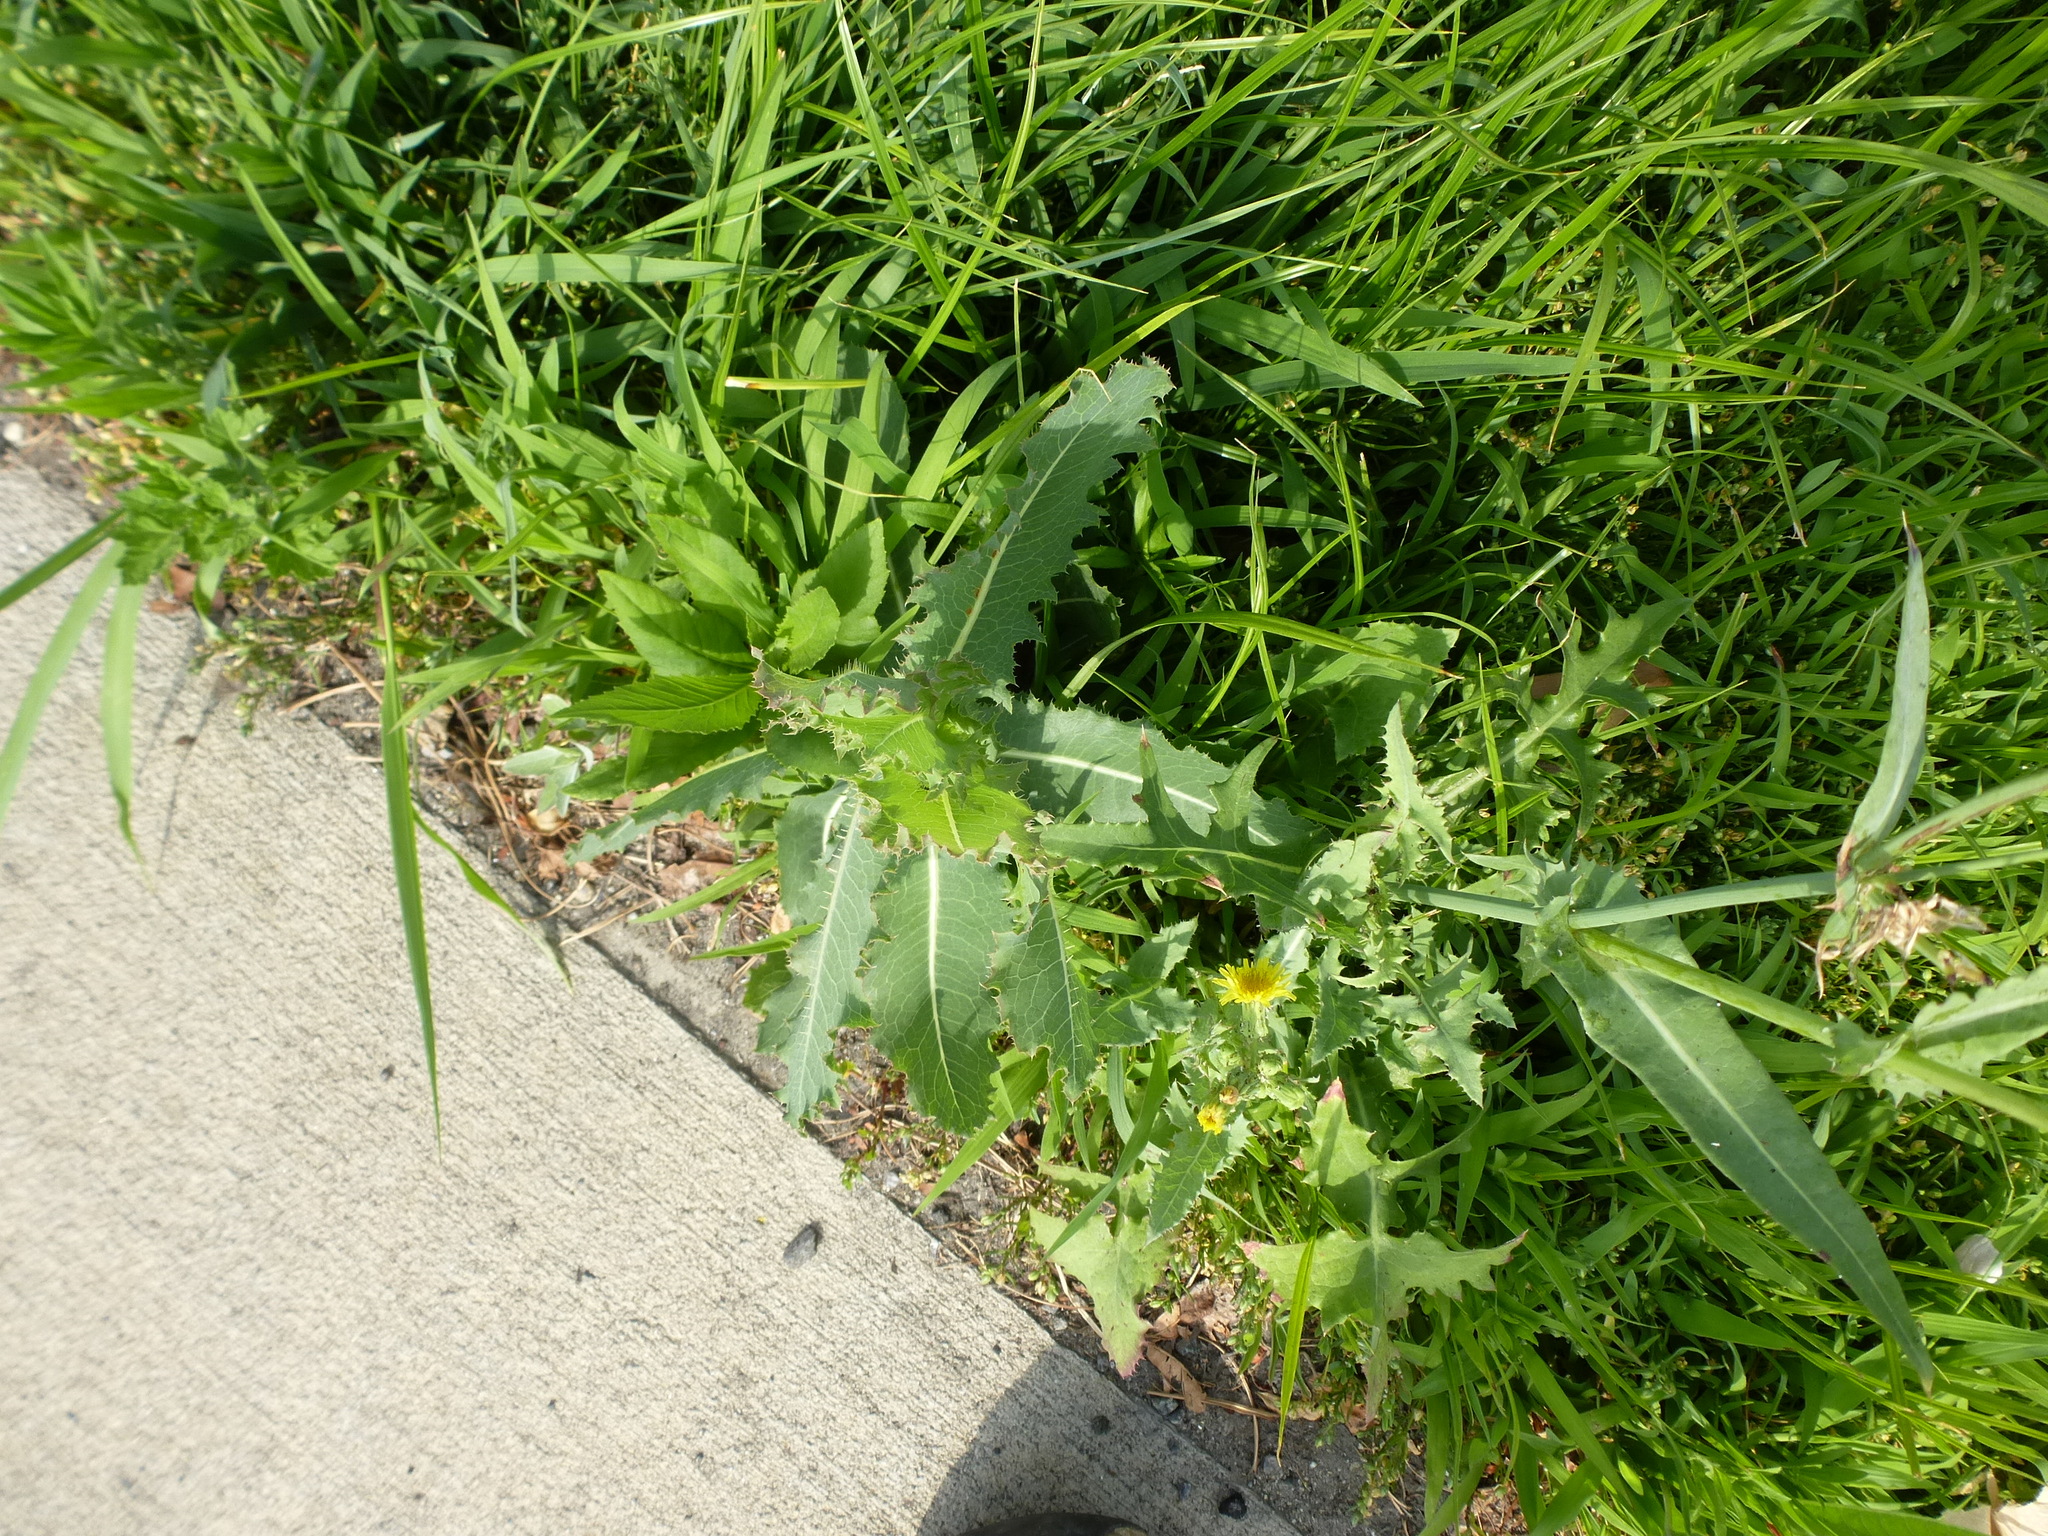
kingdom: Plantae
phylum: Tracheophyta
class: Magnoliopsida
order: Asterales
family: Asteraceae
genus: Lactuca
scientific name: Lactuca serriola
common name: Prickly lettuce
